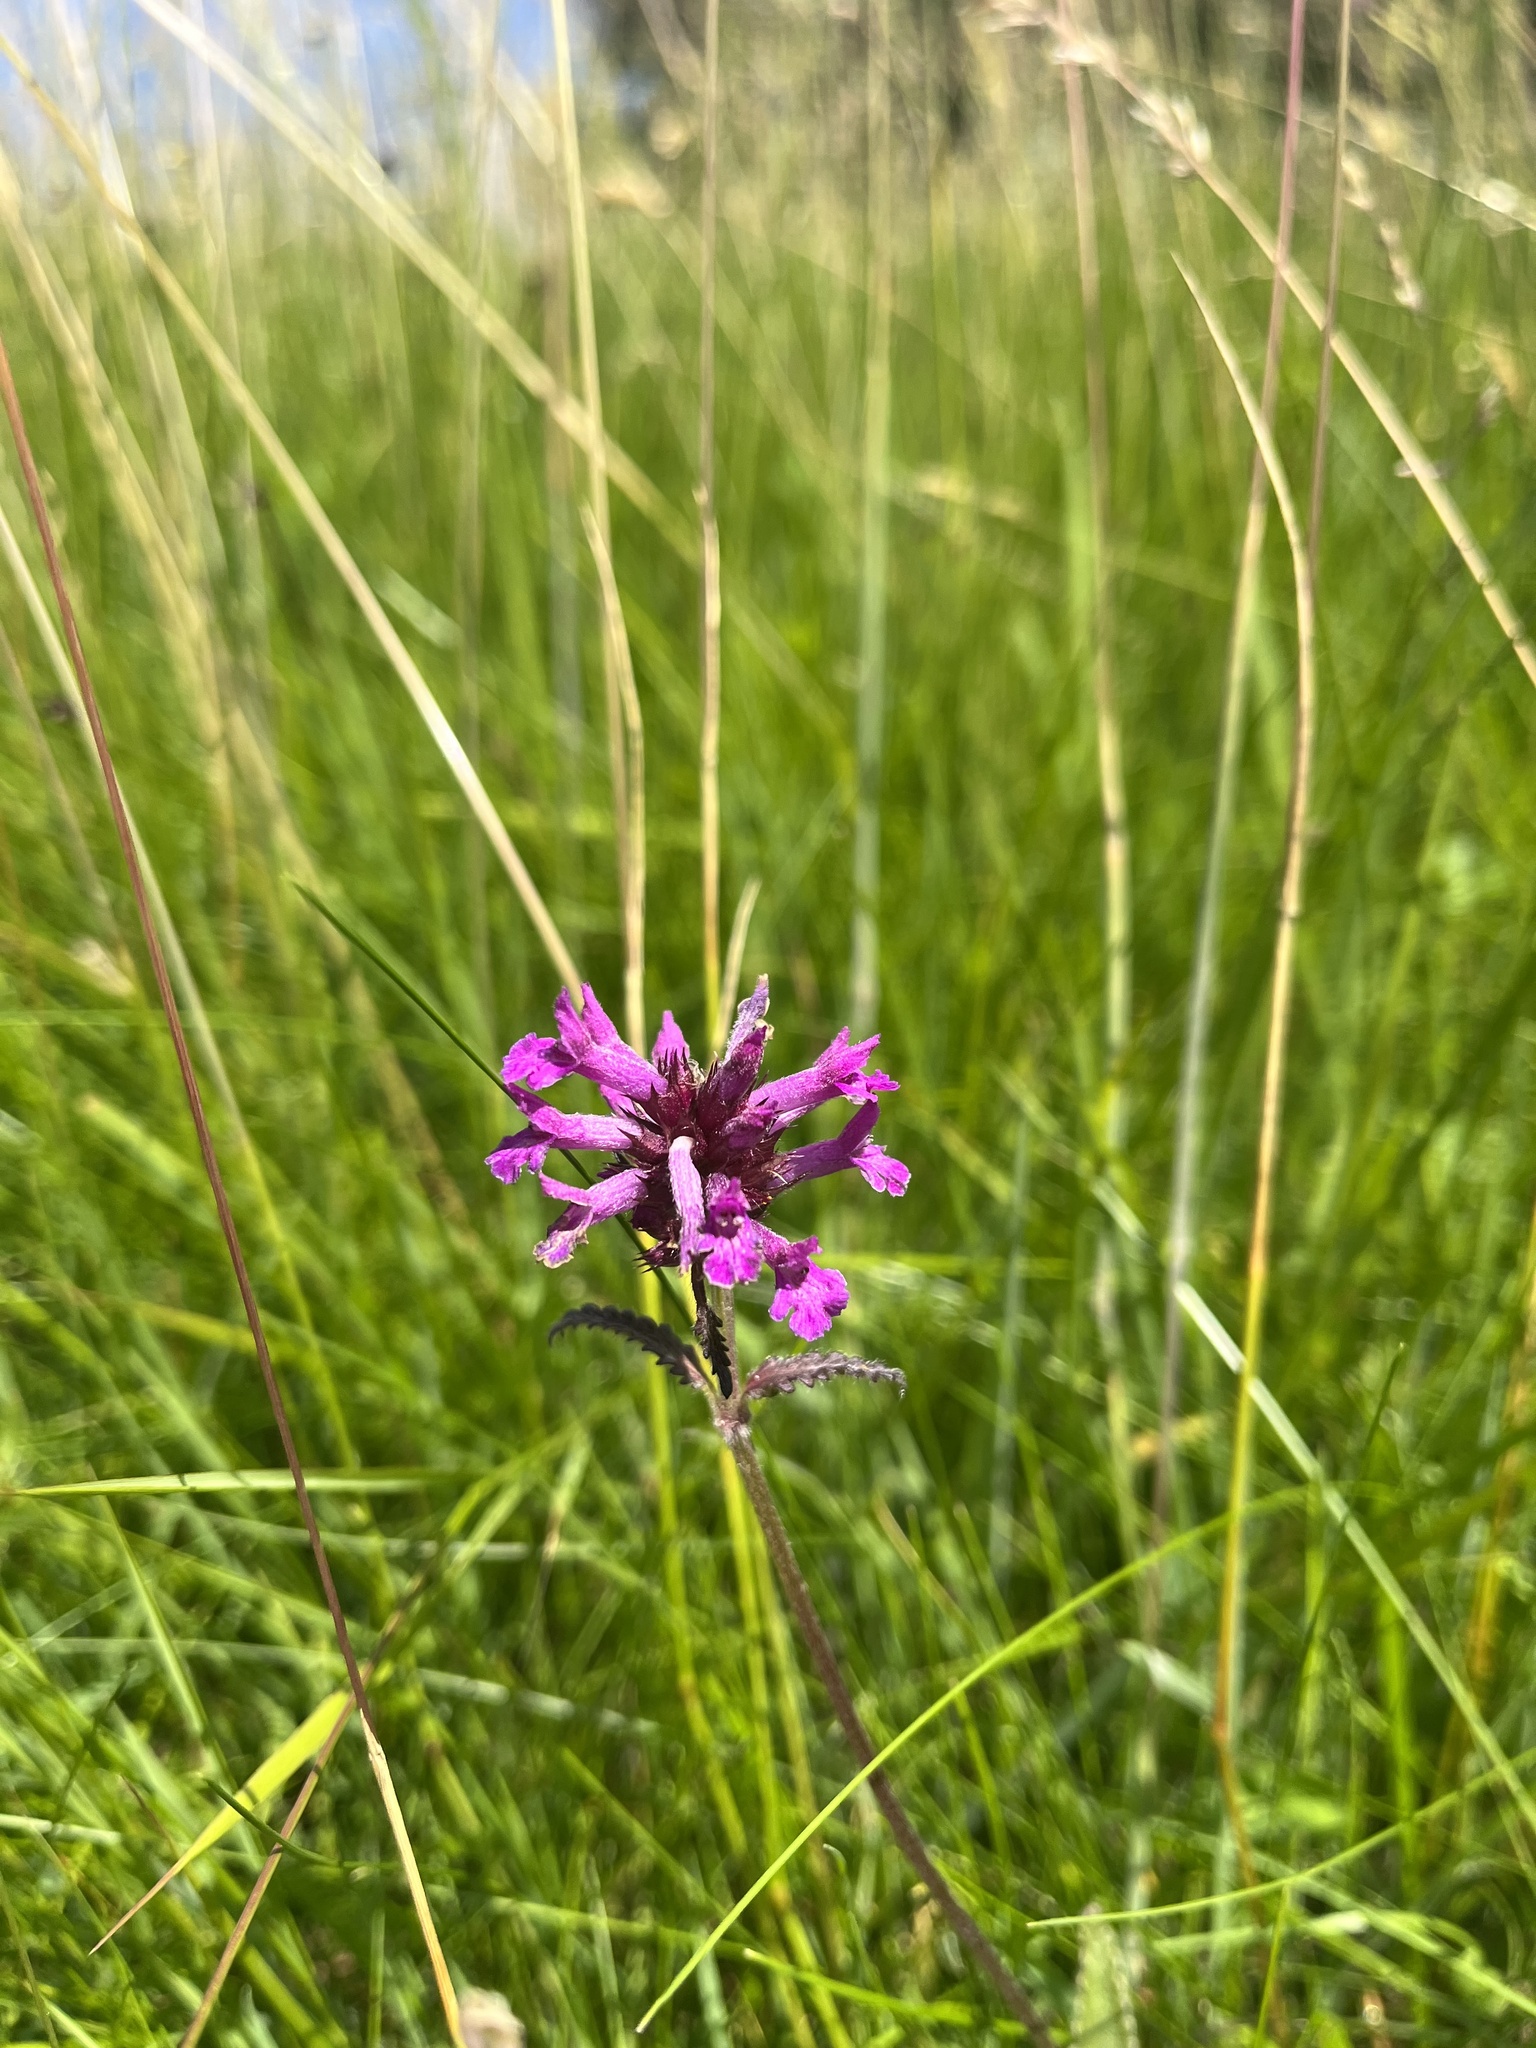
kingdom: Plantae
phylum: Tracheophyta
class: Magnoliopsida
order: Lamiales
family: Lamiaceae
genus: Betonica
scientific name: Betonica officinalis
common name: Bishop's-wort
